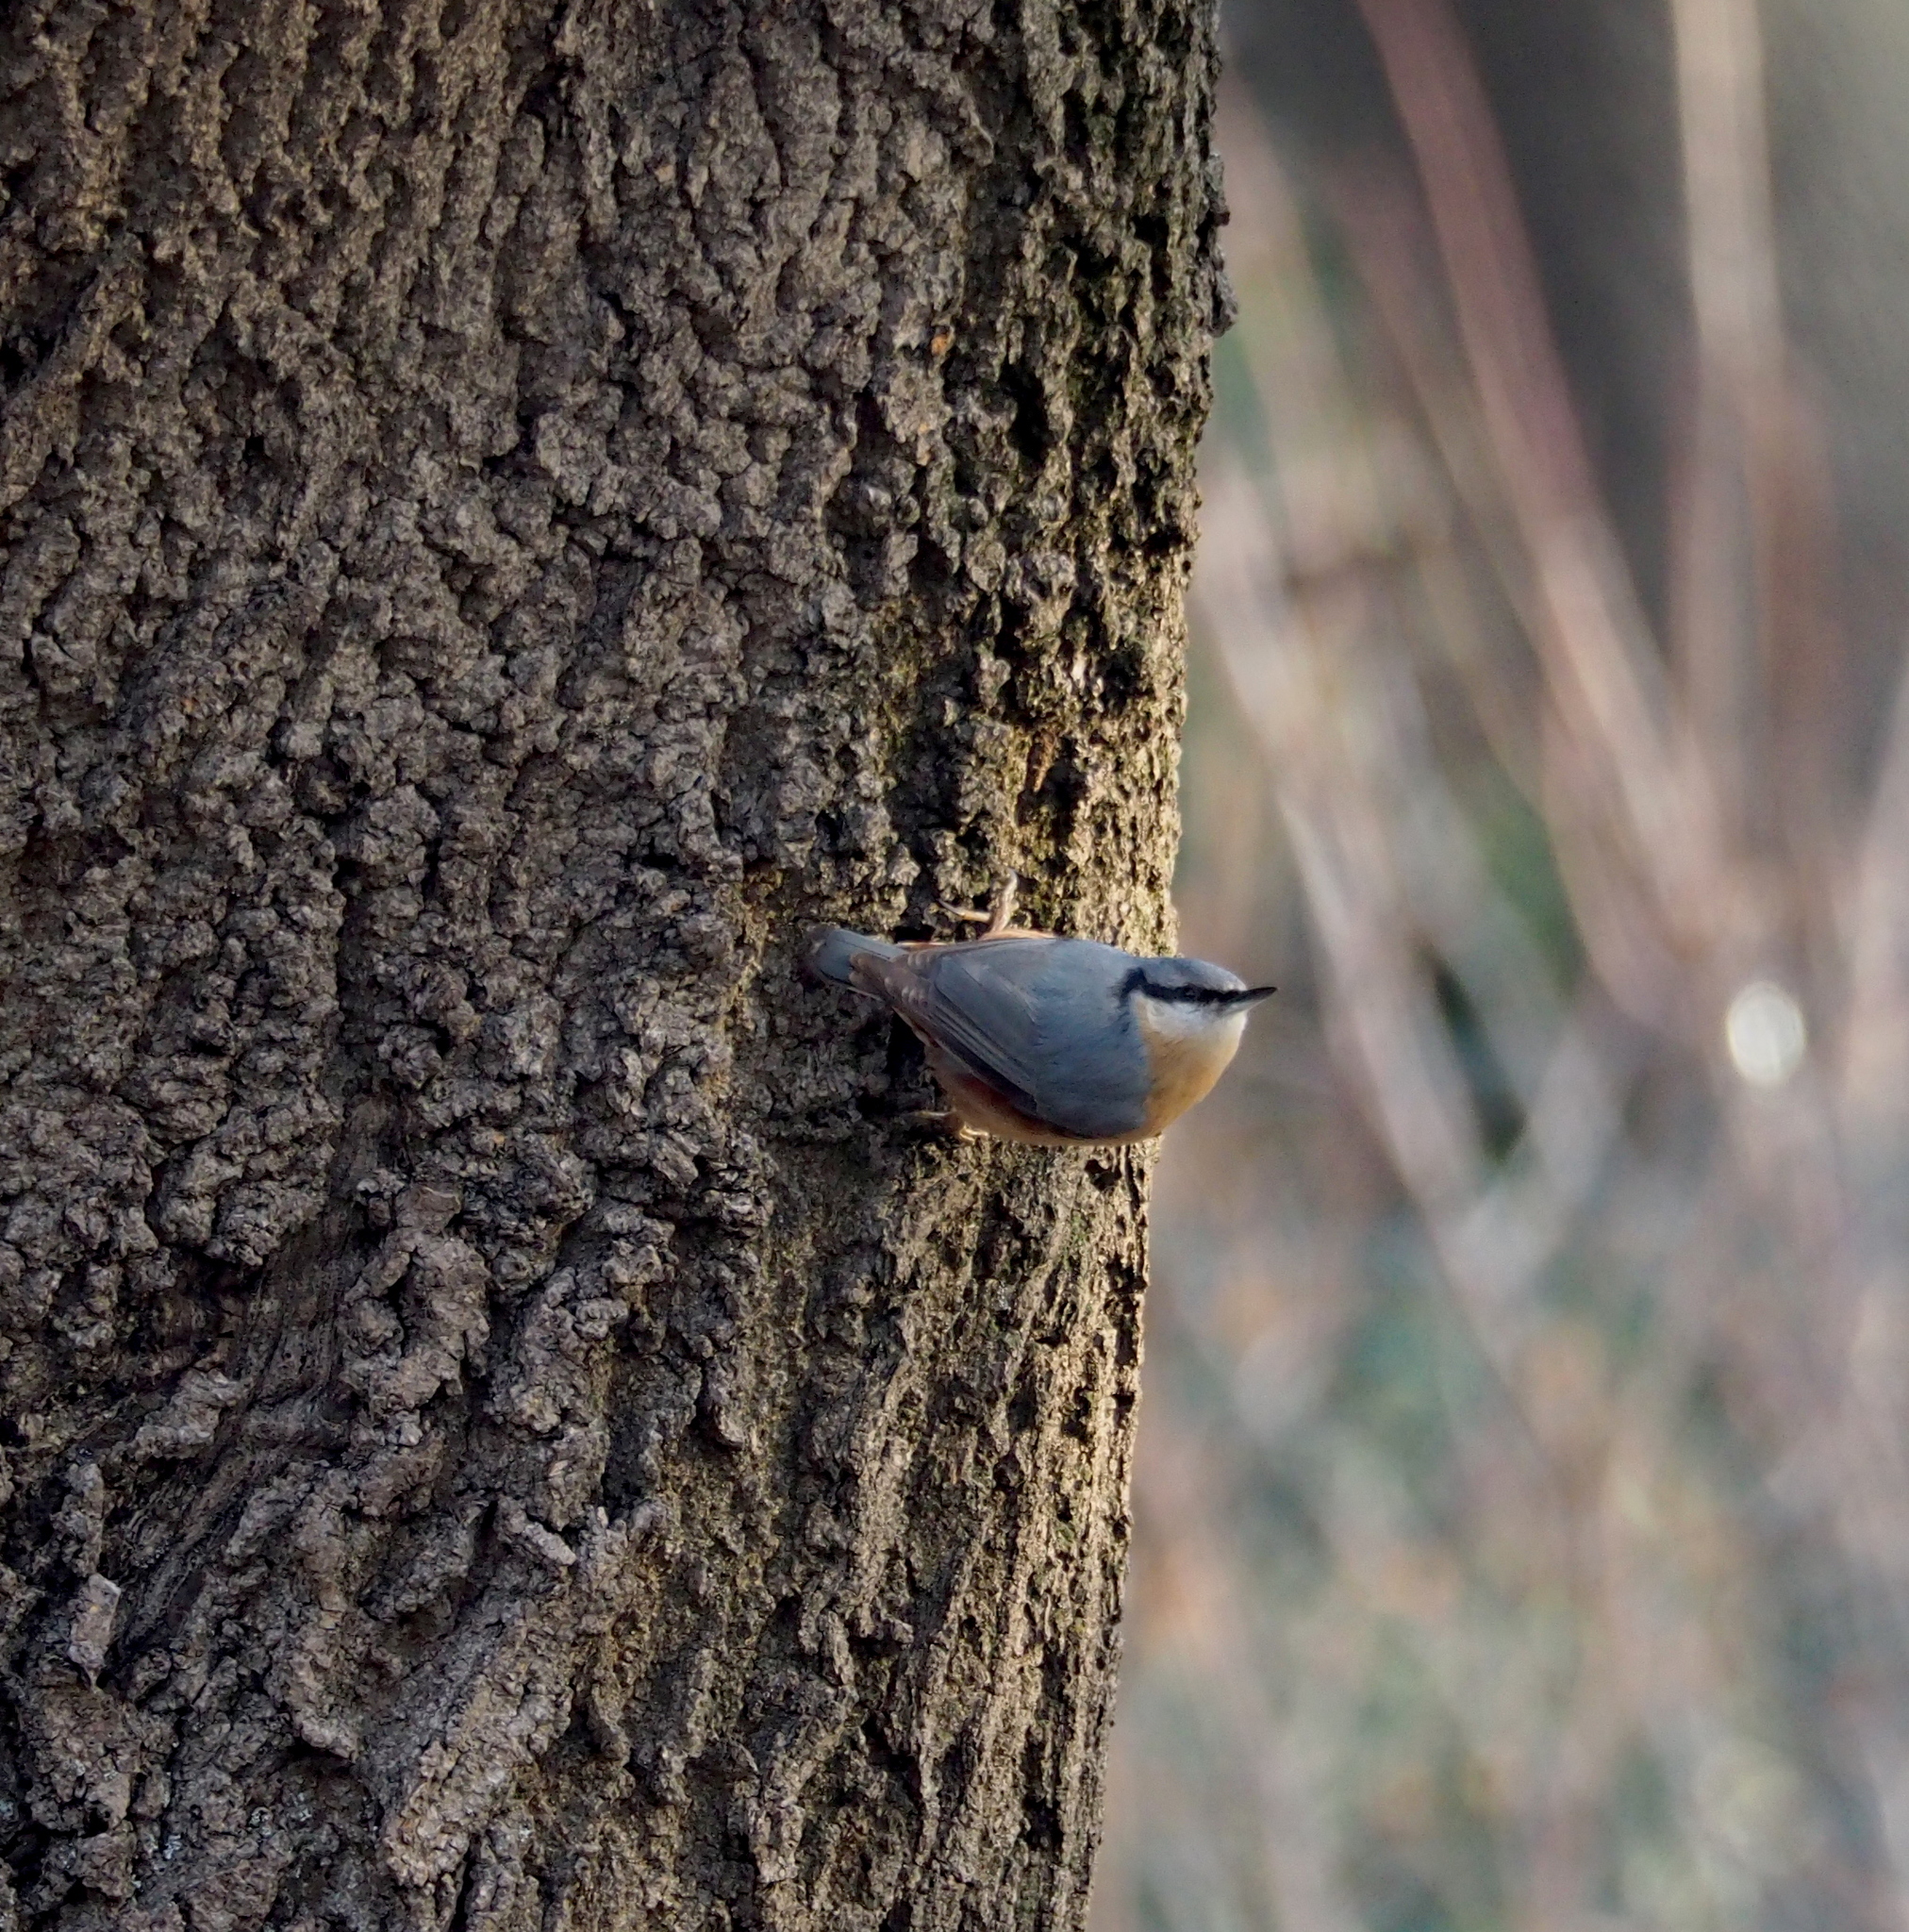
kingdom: Animalia
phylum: Chordata
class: Aves
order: Passeriformes
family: Sittidae
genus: Sitta
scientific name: Sitta europaea
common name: Eurasian nuthatch
